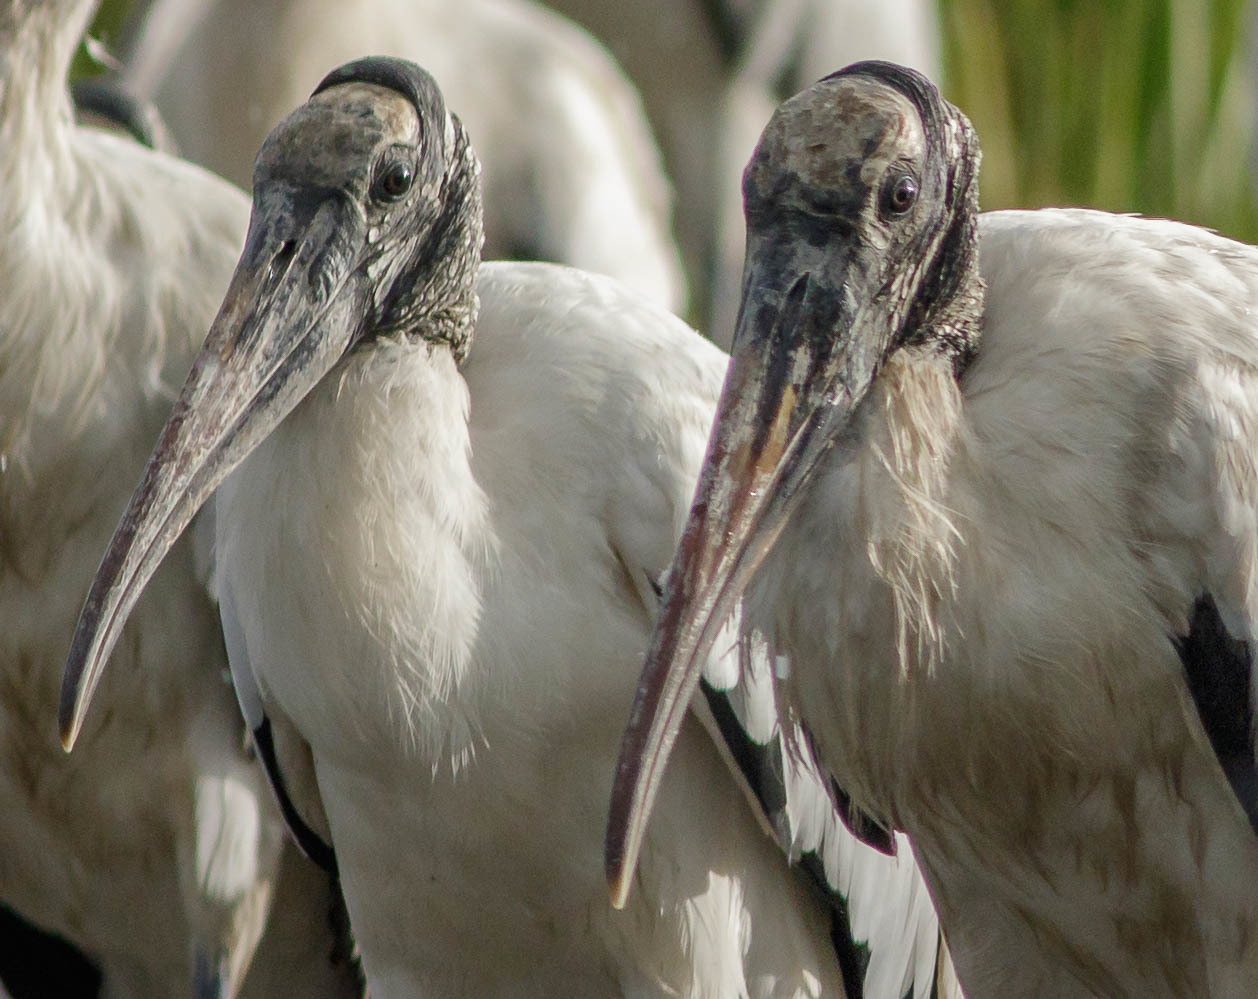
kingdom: Animalia
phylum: Chordata
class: Aves
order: Ciconiiformes
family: Ciconiidae
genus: Mycteria
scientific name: Mycteria americana
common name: Wood stork
